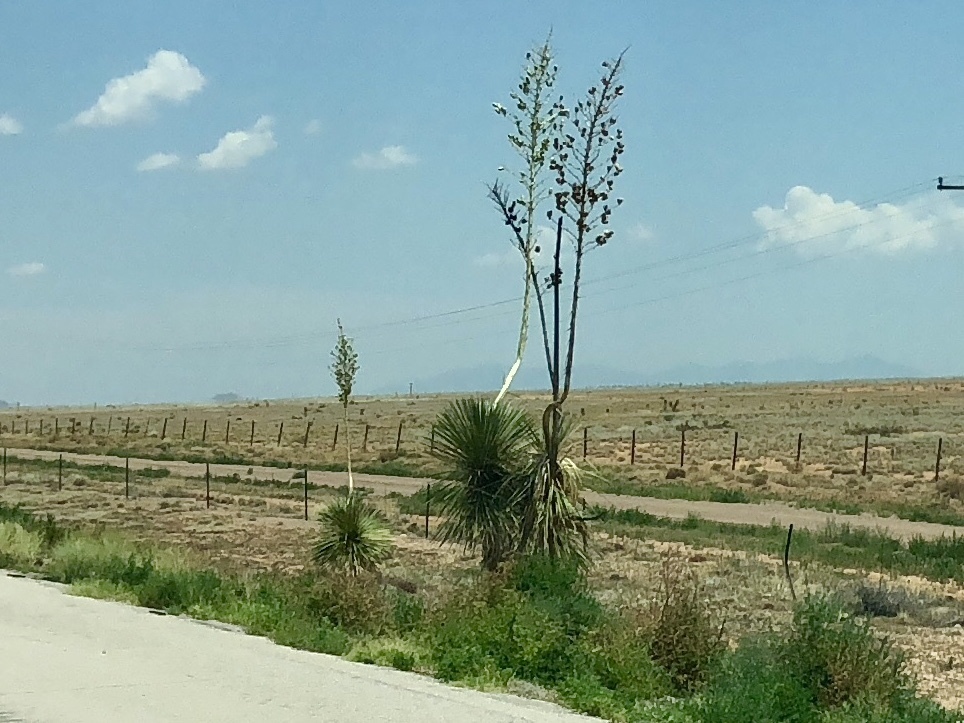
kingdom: Plantae
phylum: Tracheophyta
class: Liliopsida
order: Asparagales
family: Asparagaceae
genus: Yucca
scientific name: Yucca elata
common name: Palmella
